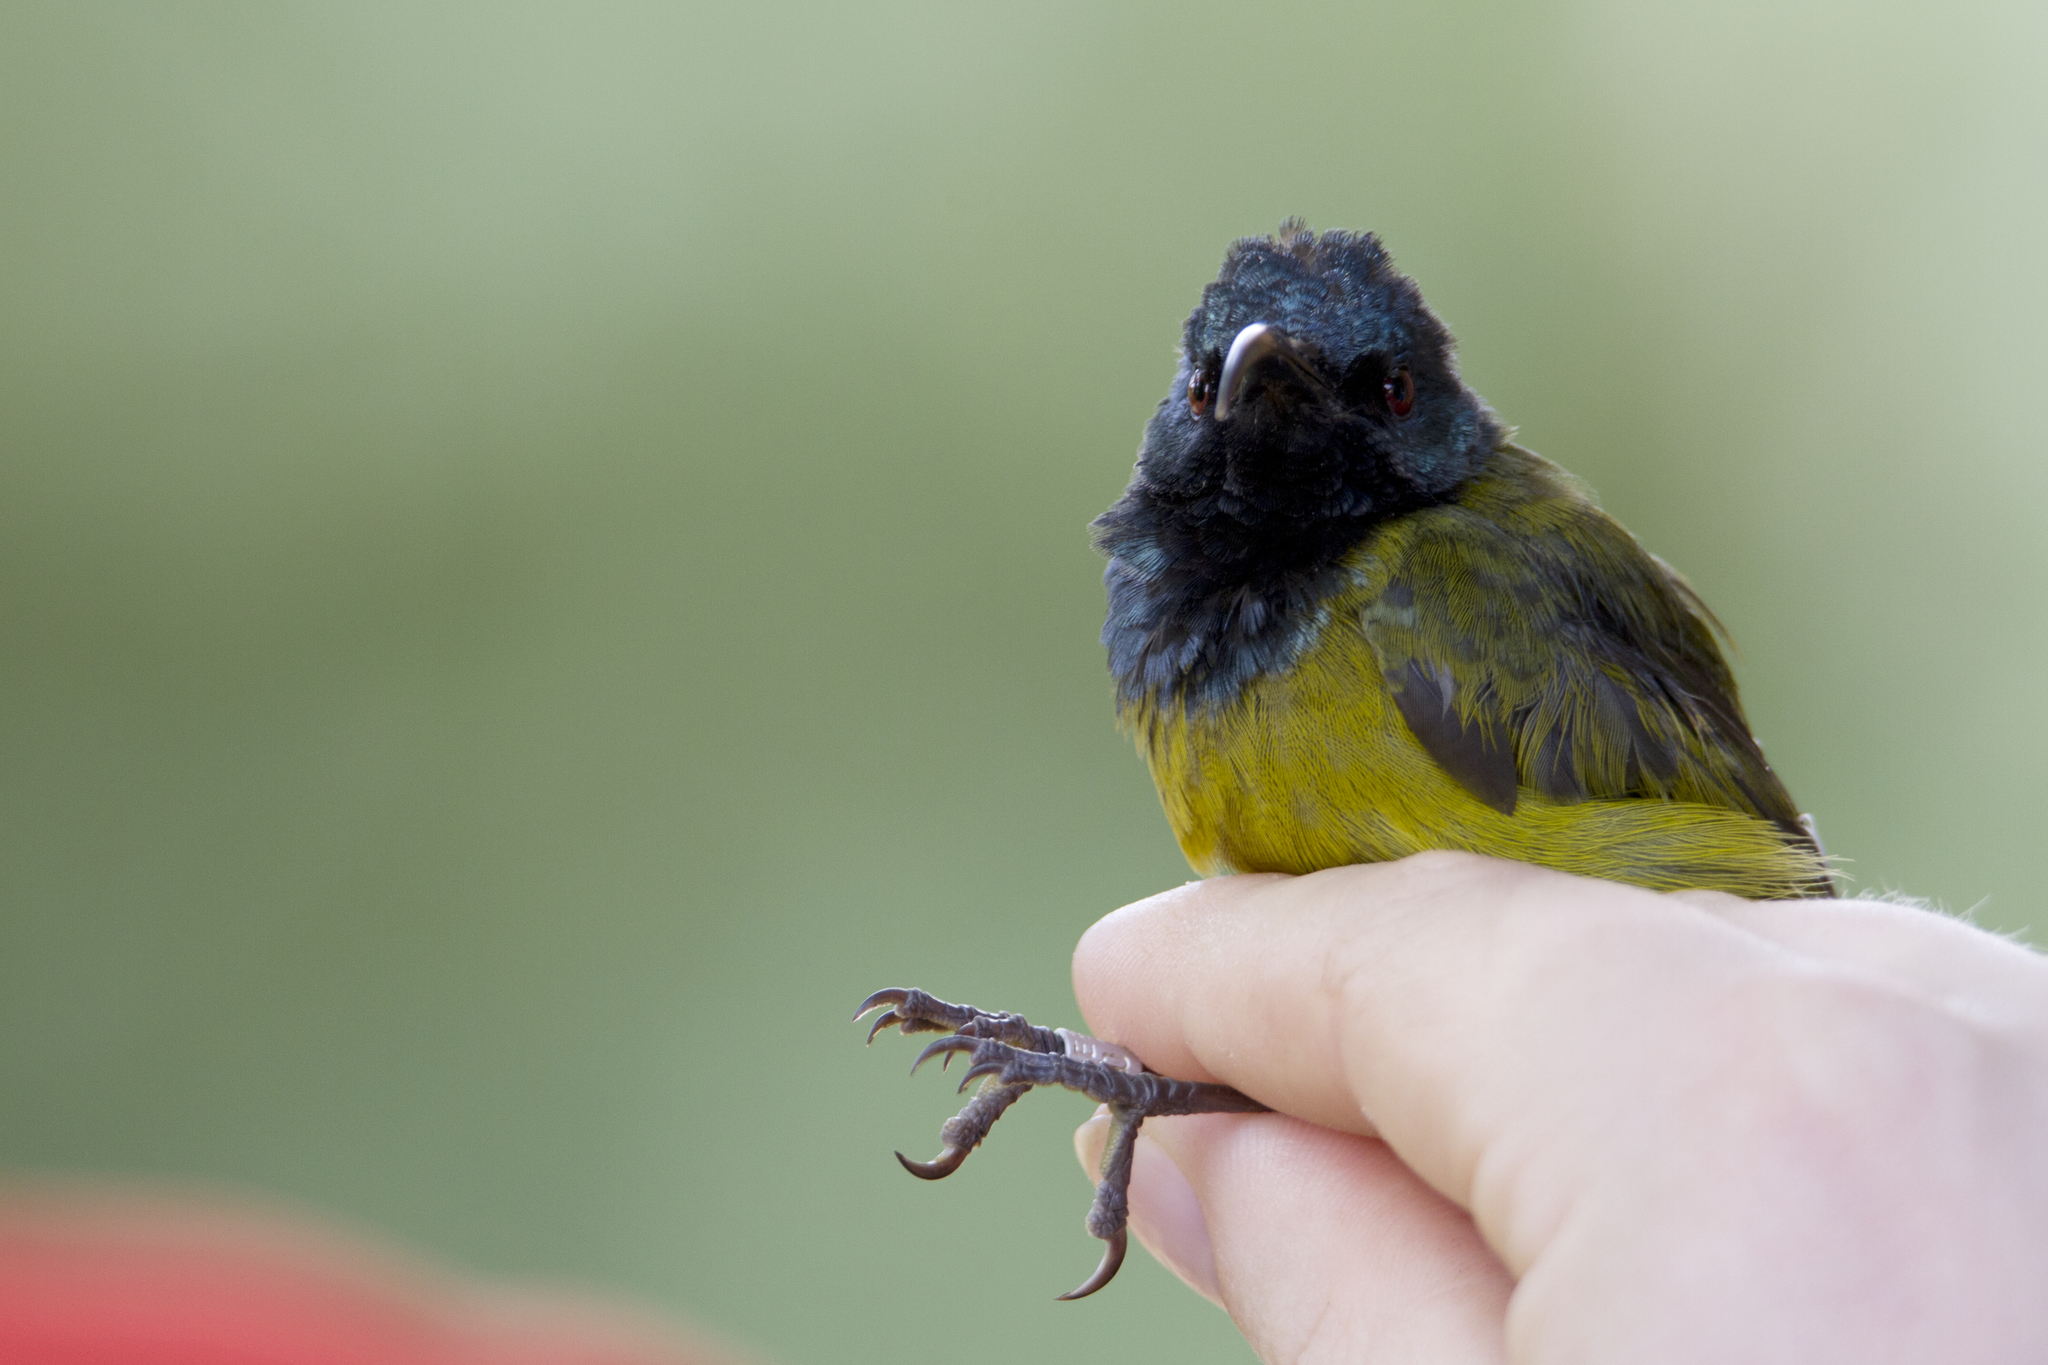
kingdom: Animalia
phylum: Chordata
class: Aves
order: Passeriformes
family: Nectariniidae
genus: Cyanomitra
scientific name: Cyanomitra oritis
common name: Cameroon sunbird
